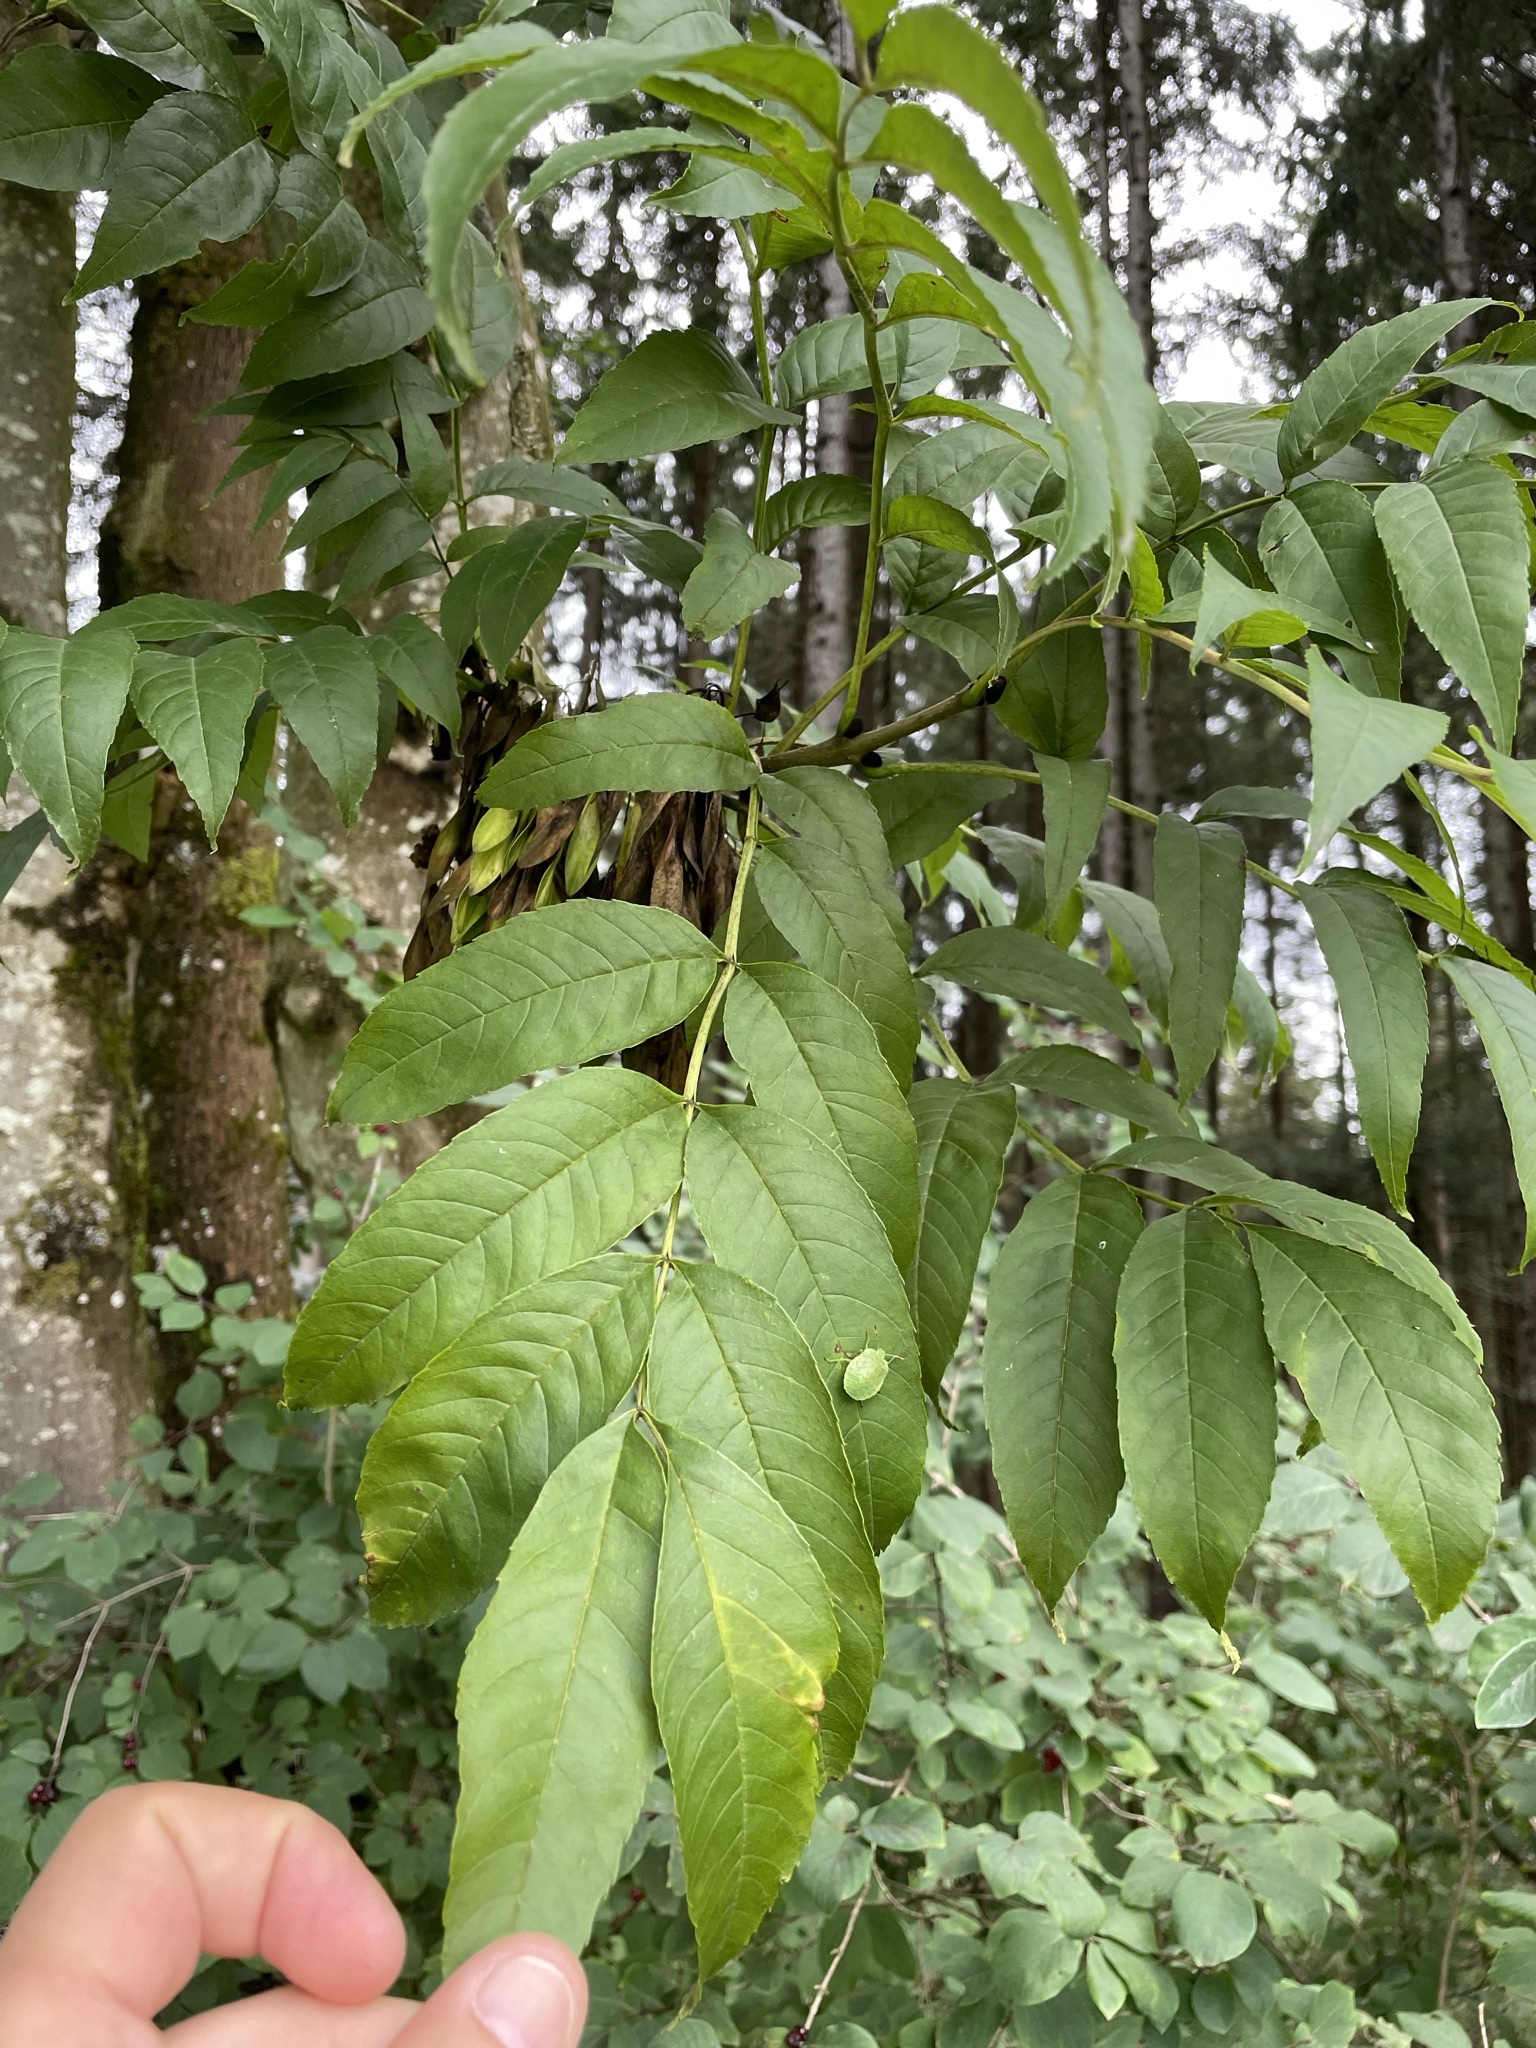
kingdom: Plantae
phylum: Tracheophyta
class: Magnoliopsida
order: Lamiales
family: Oleaceae
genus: Fraxinus
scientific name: Fraxinus excelsior
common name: European ash
